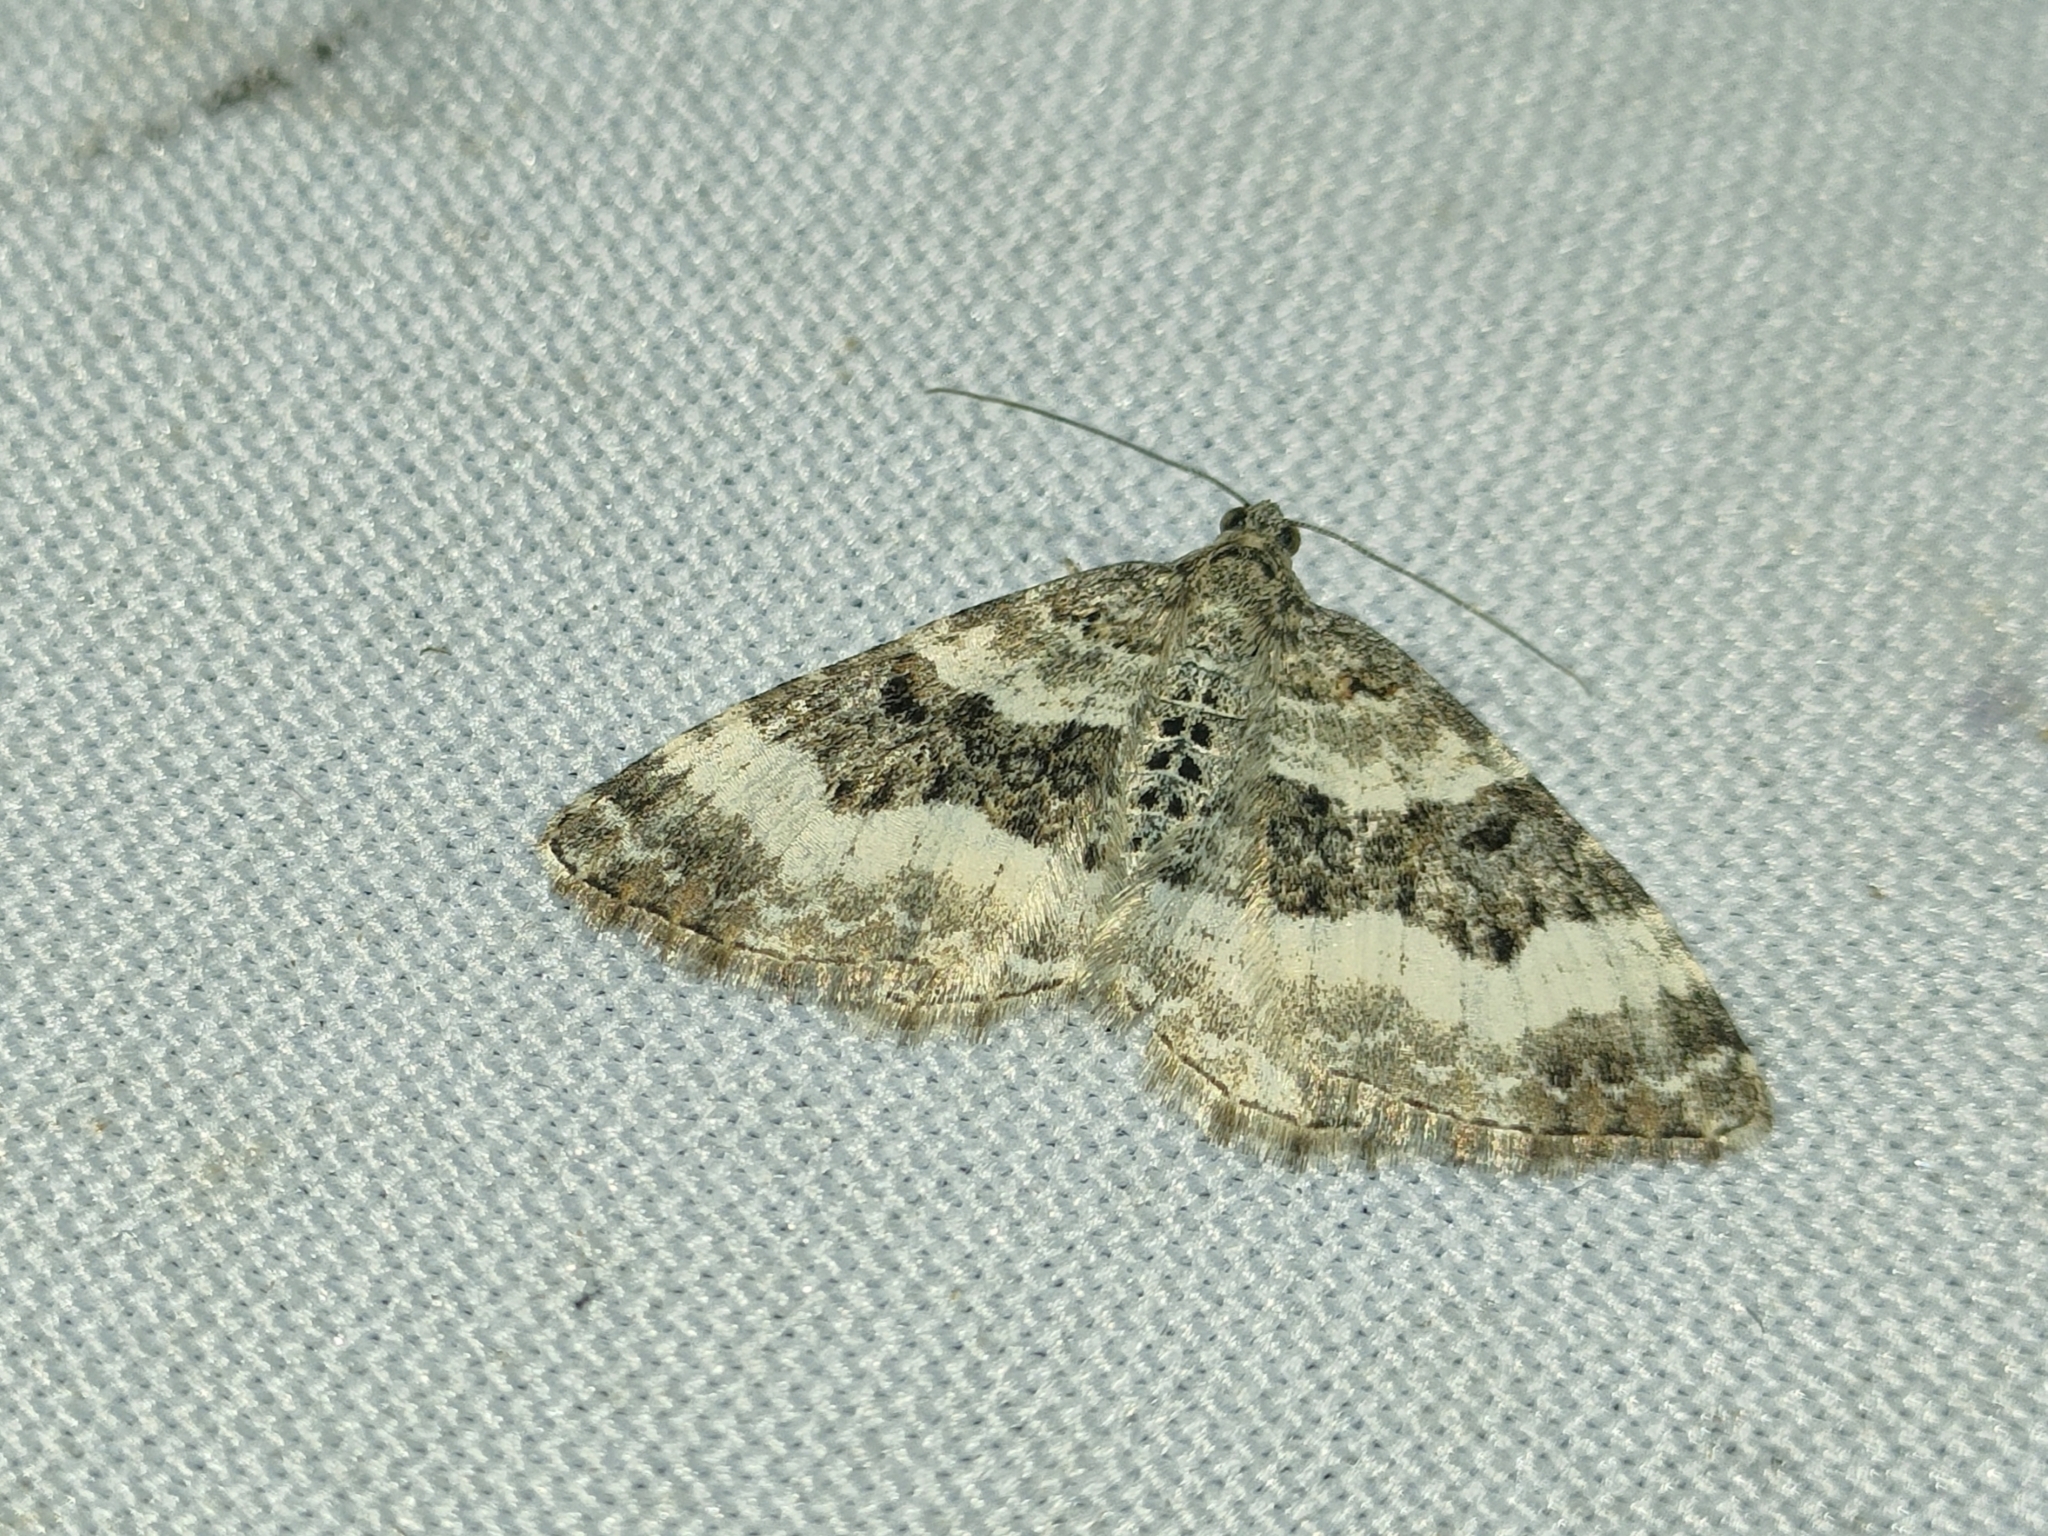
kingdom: Animalia
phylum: Arthropoda
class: Insecta
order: Lepidoptera
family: Geometridae
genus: Epirrhoe
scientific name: Epirrhoe alternata
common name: Common carpet
